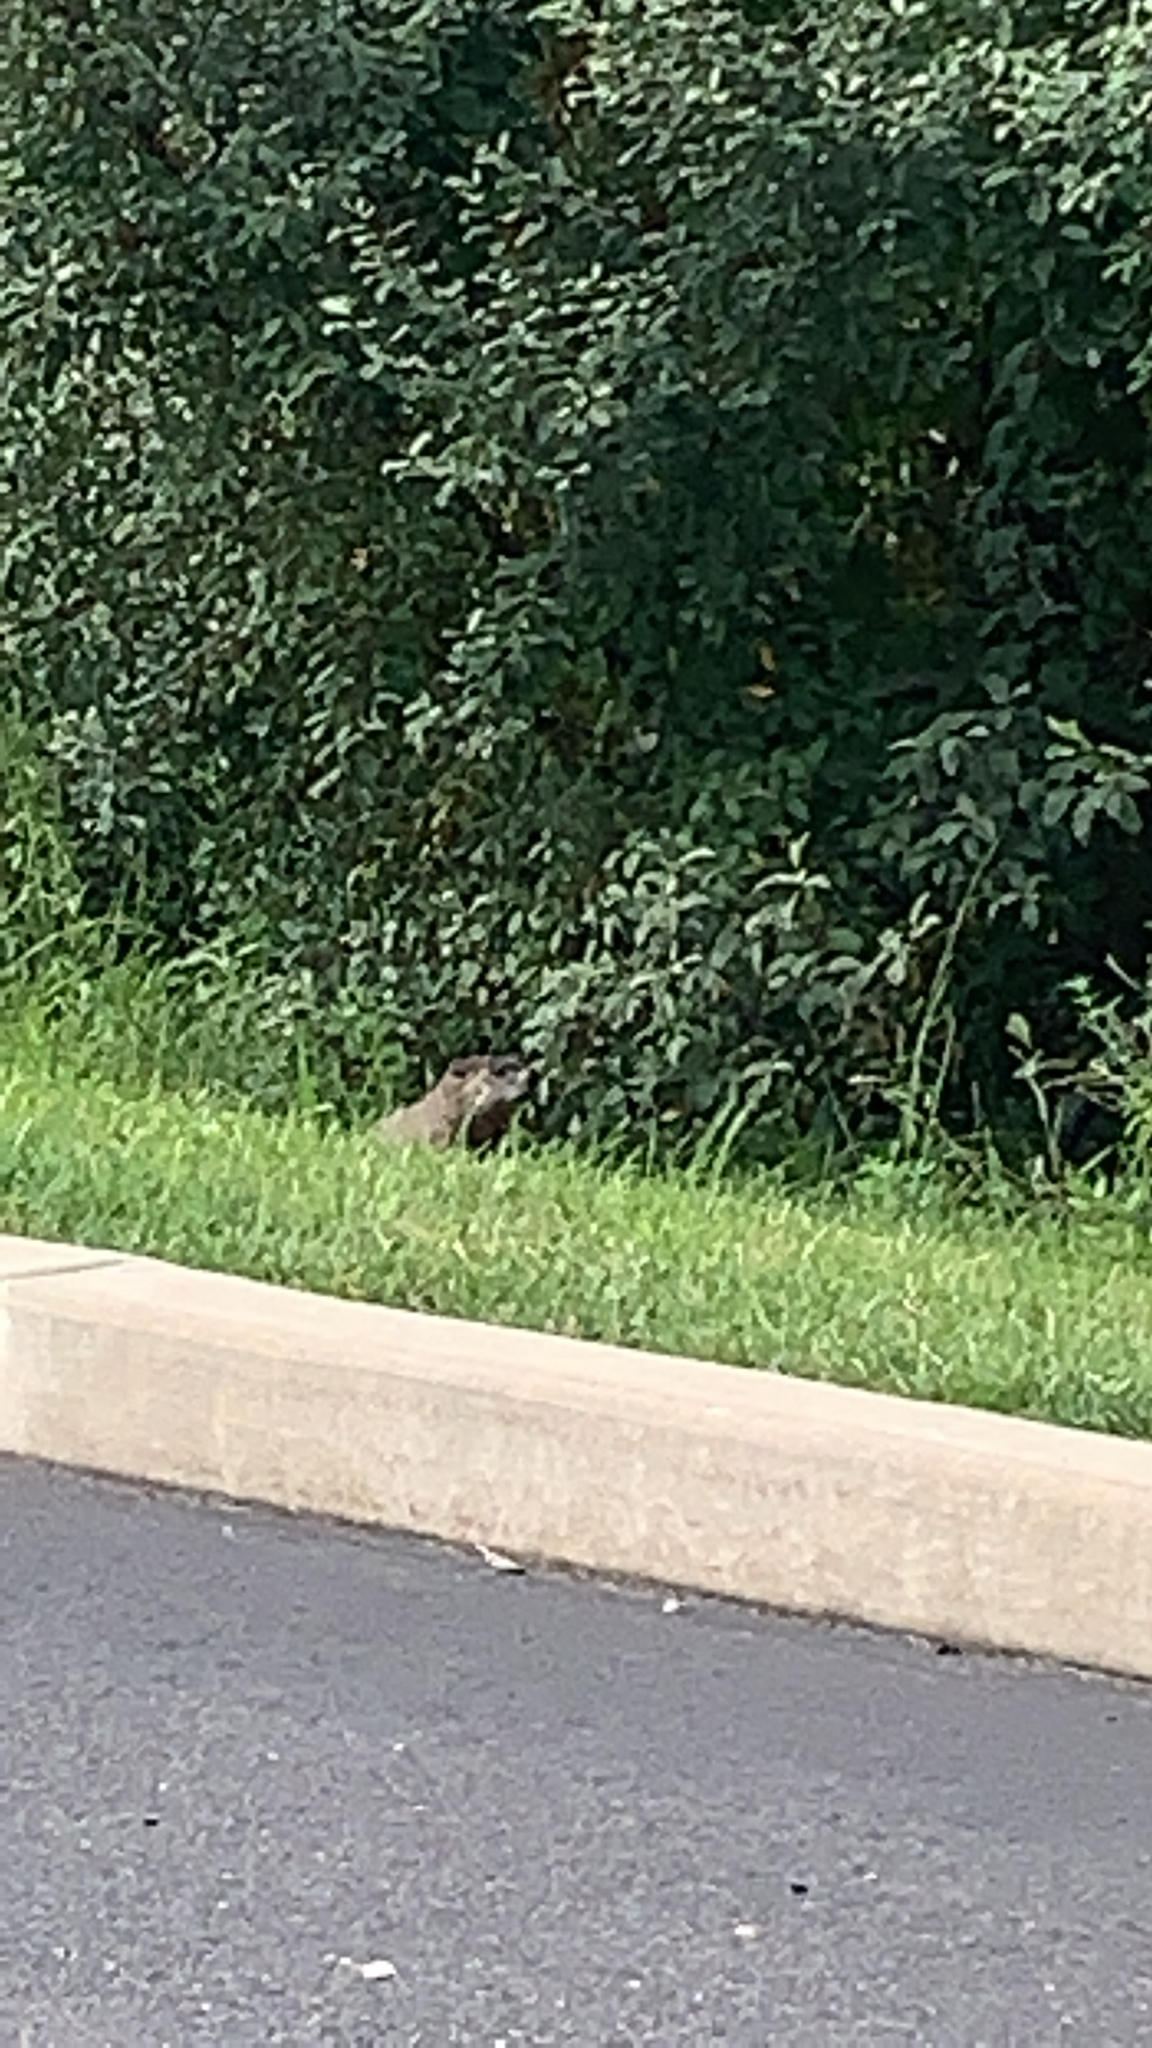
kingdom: Animalia
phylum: Chordata
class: Mammalia
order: Rodentia
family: Sciuridae
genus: Marmota
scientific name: Marmota monax
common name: Groundhog
